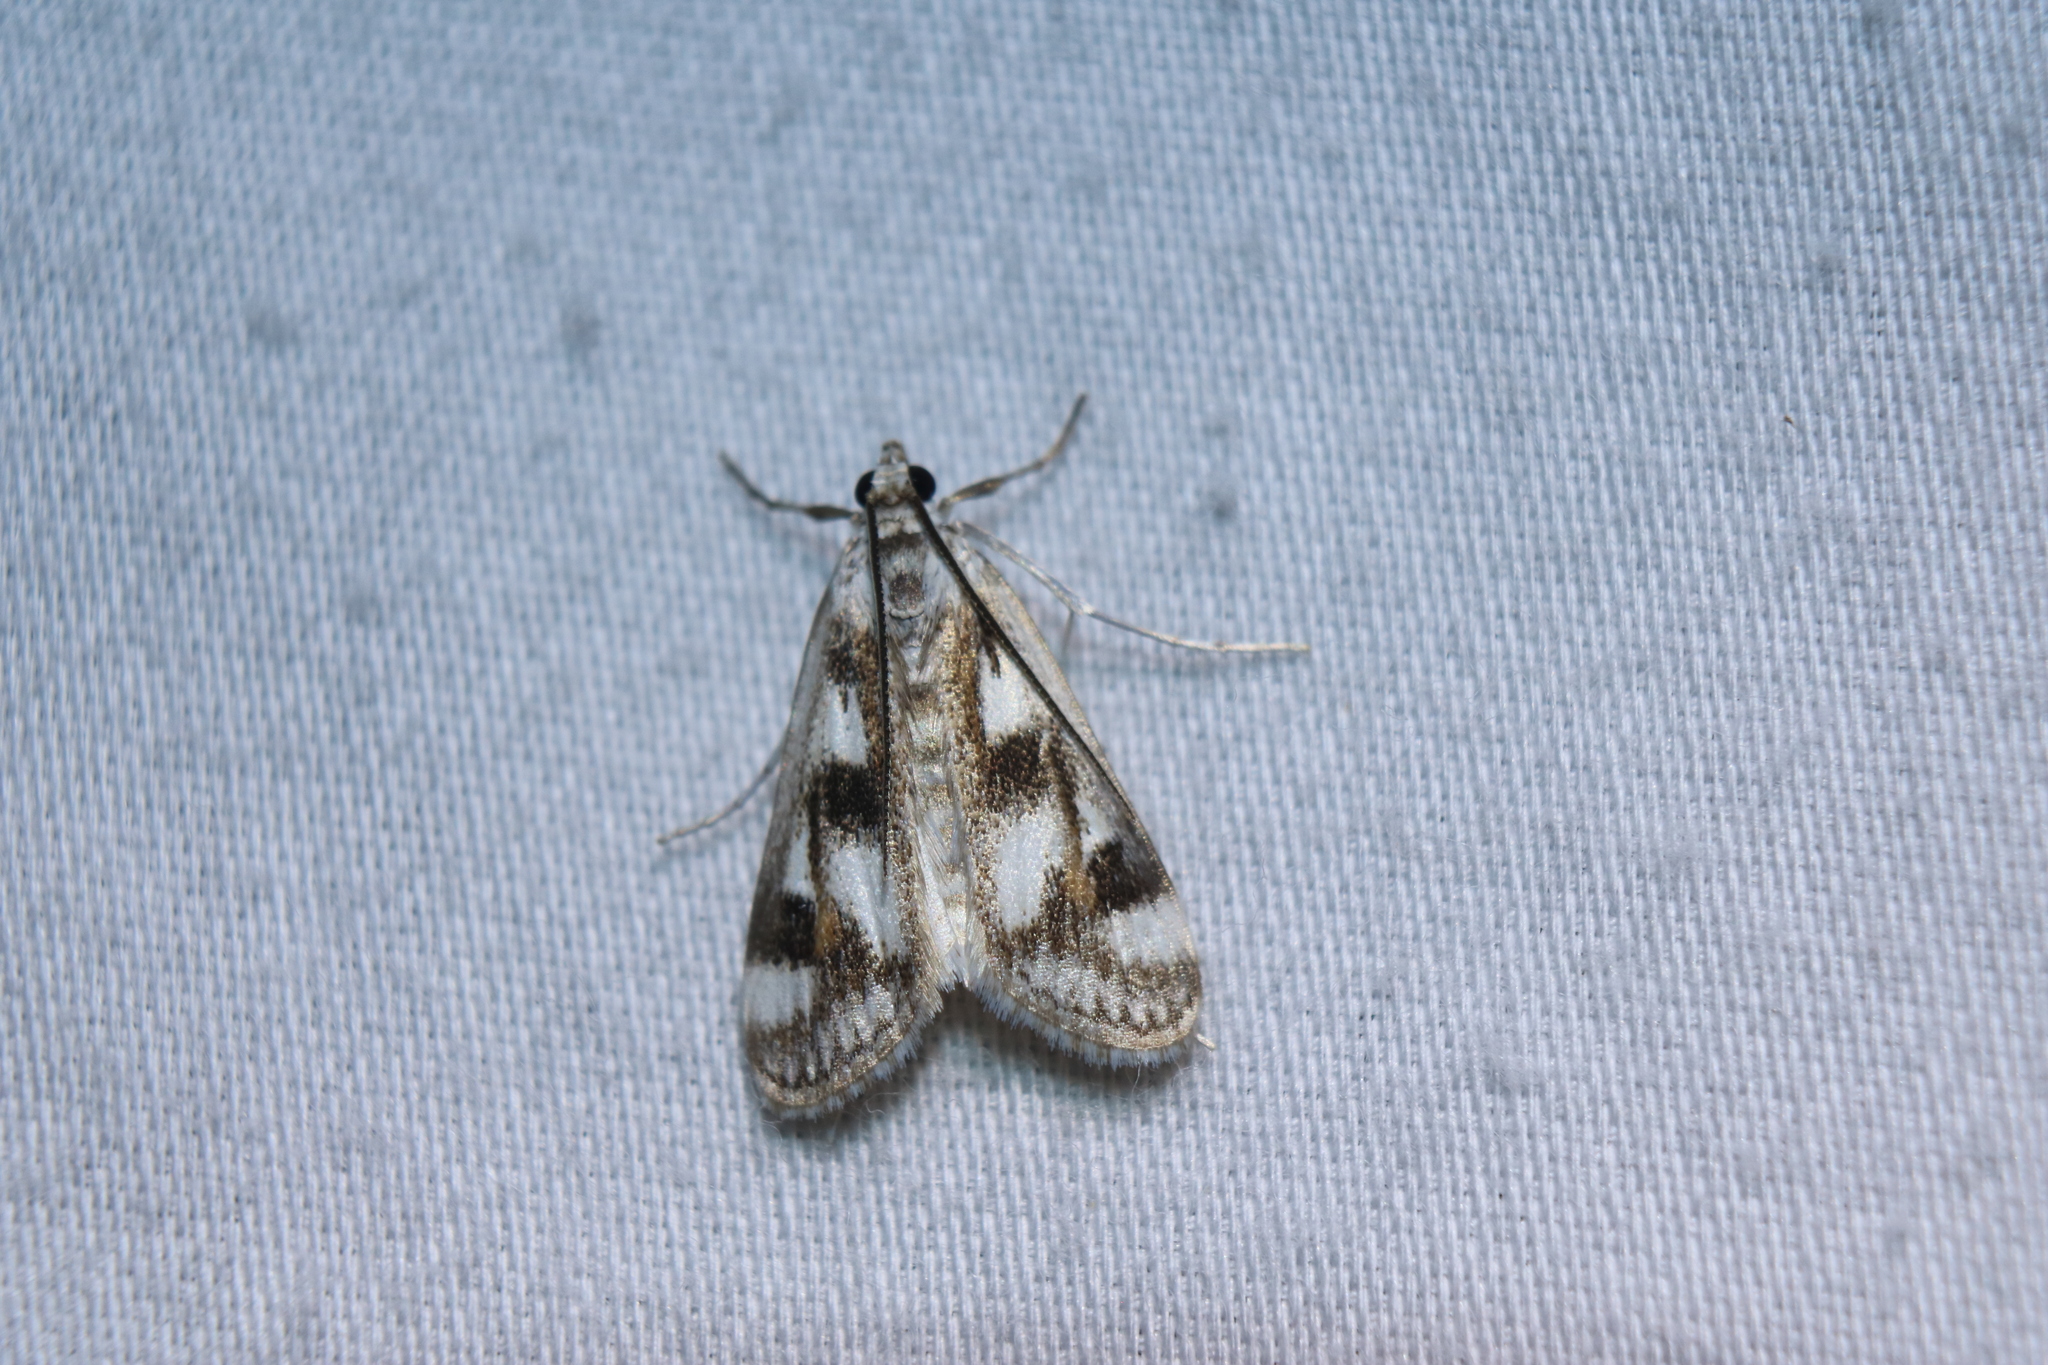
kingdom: Animalia
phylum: Arthropoda
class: Insecta
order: Lepidoptera
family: Crambidae
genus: Parapoynx
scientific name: Parapoynx maculalis
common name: Polymorphic pondweed moth
